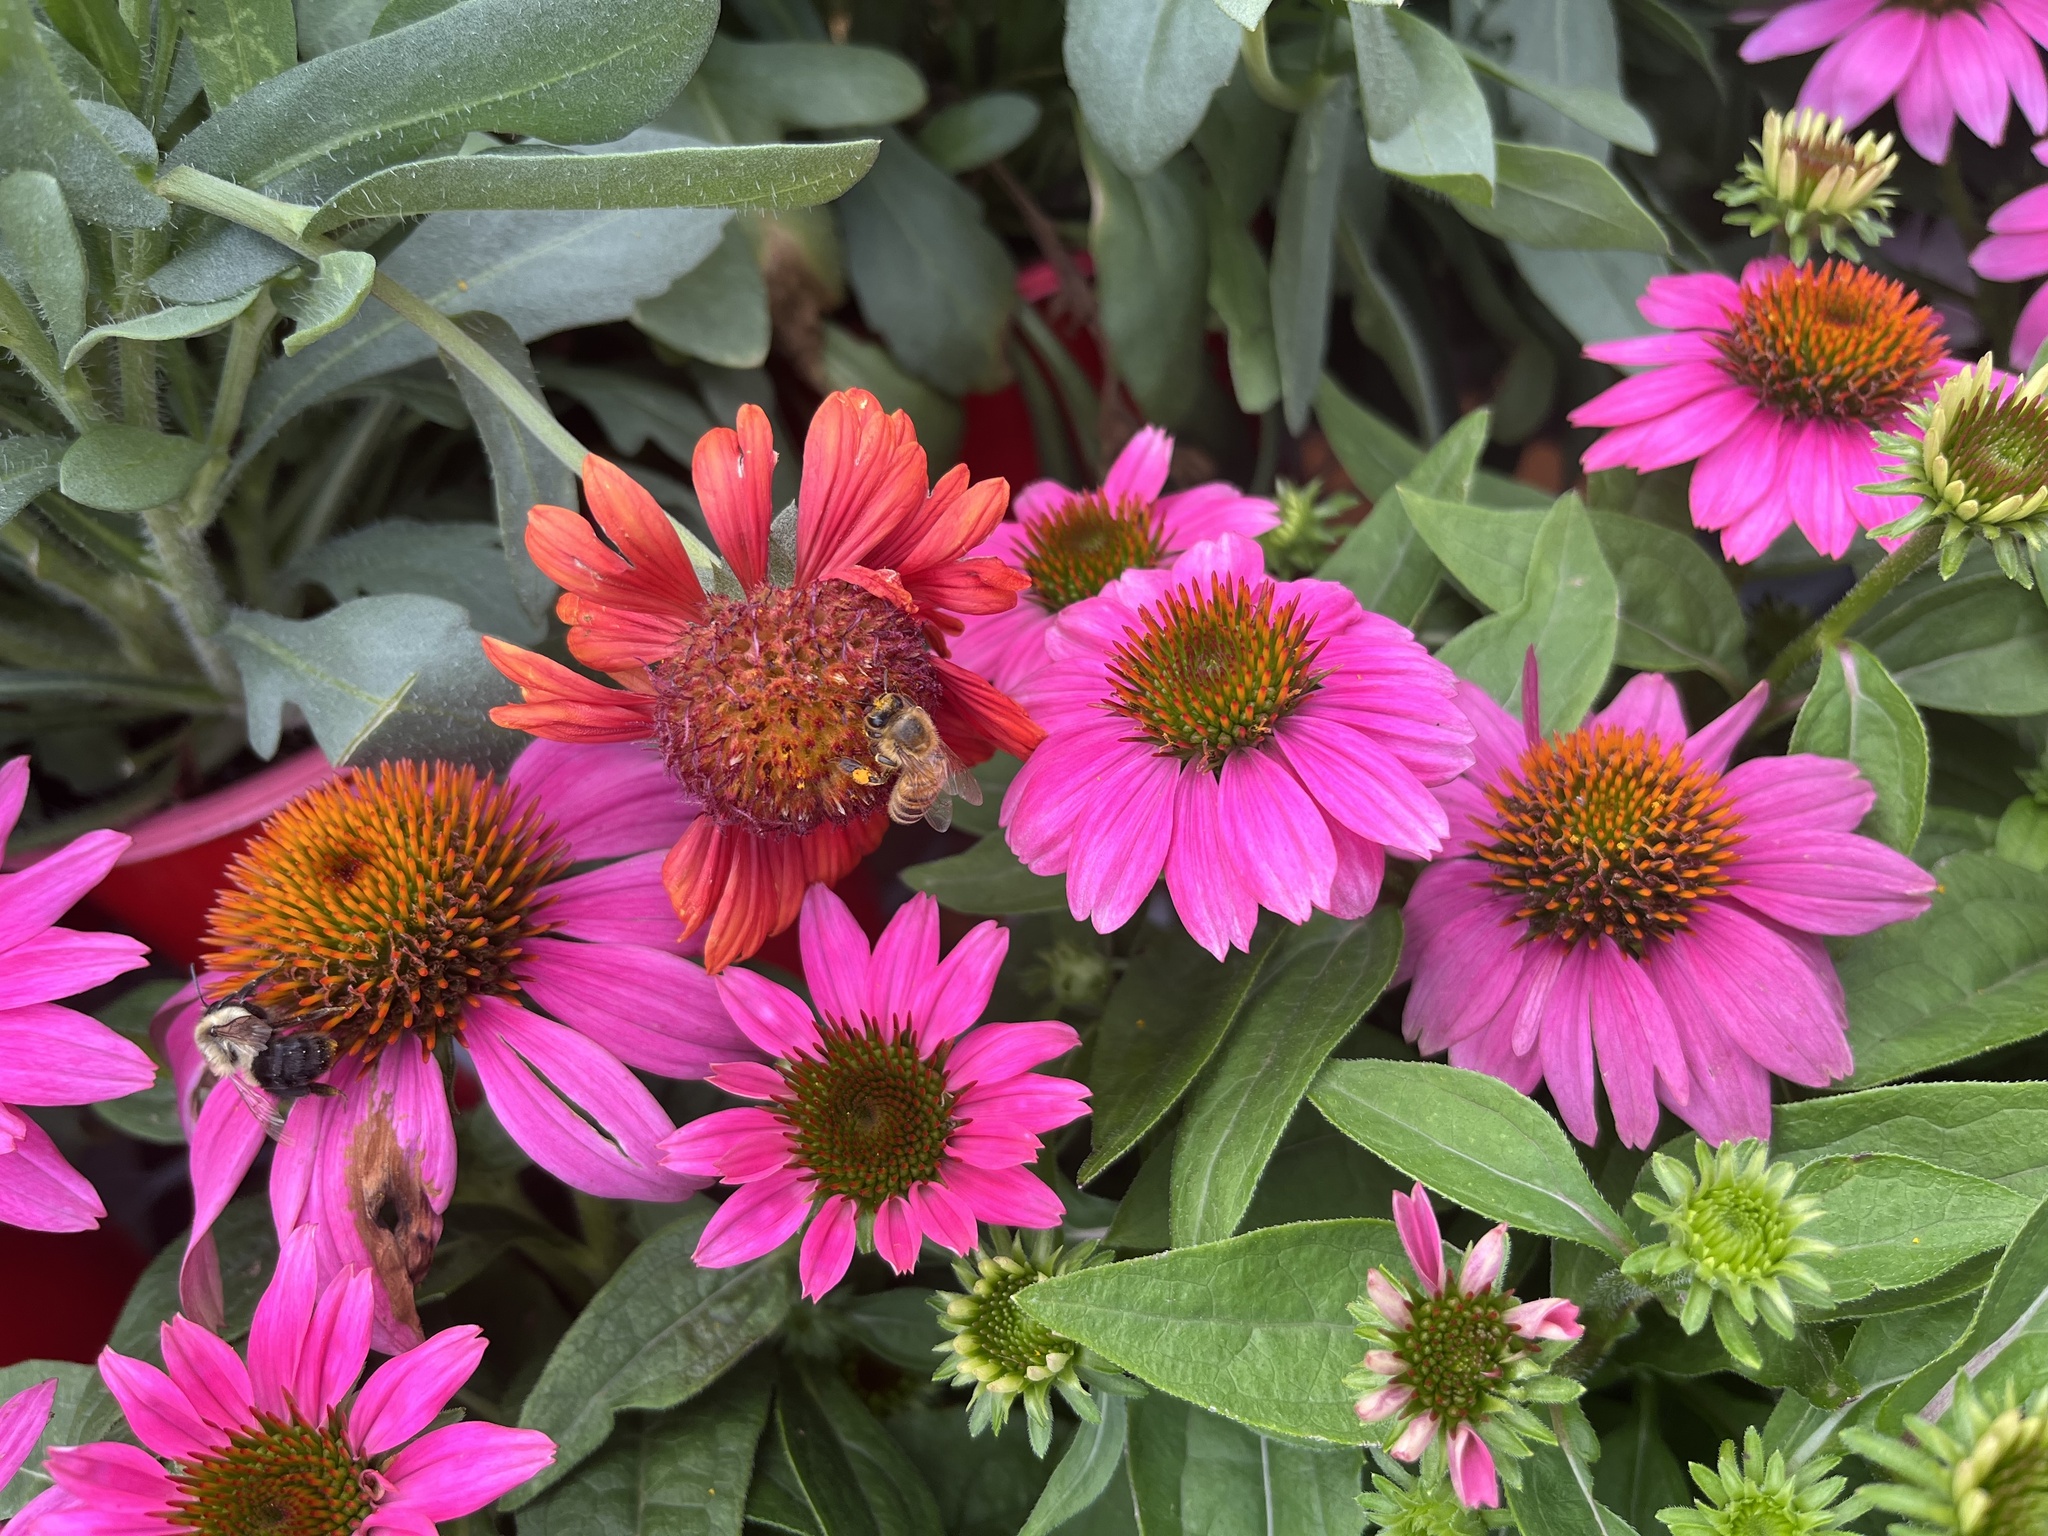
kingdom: Animalia
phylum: Arthropoda
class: Insecta
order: Hymenoptera
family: Apidae
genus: Apis
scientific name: Apis mellifera
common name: Honey bee
